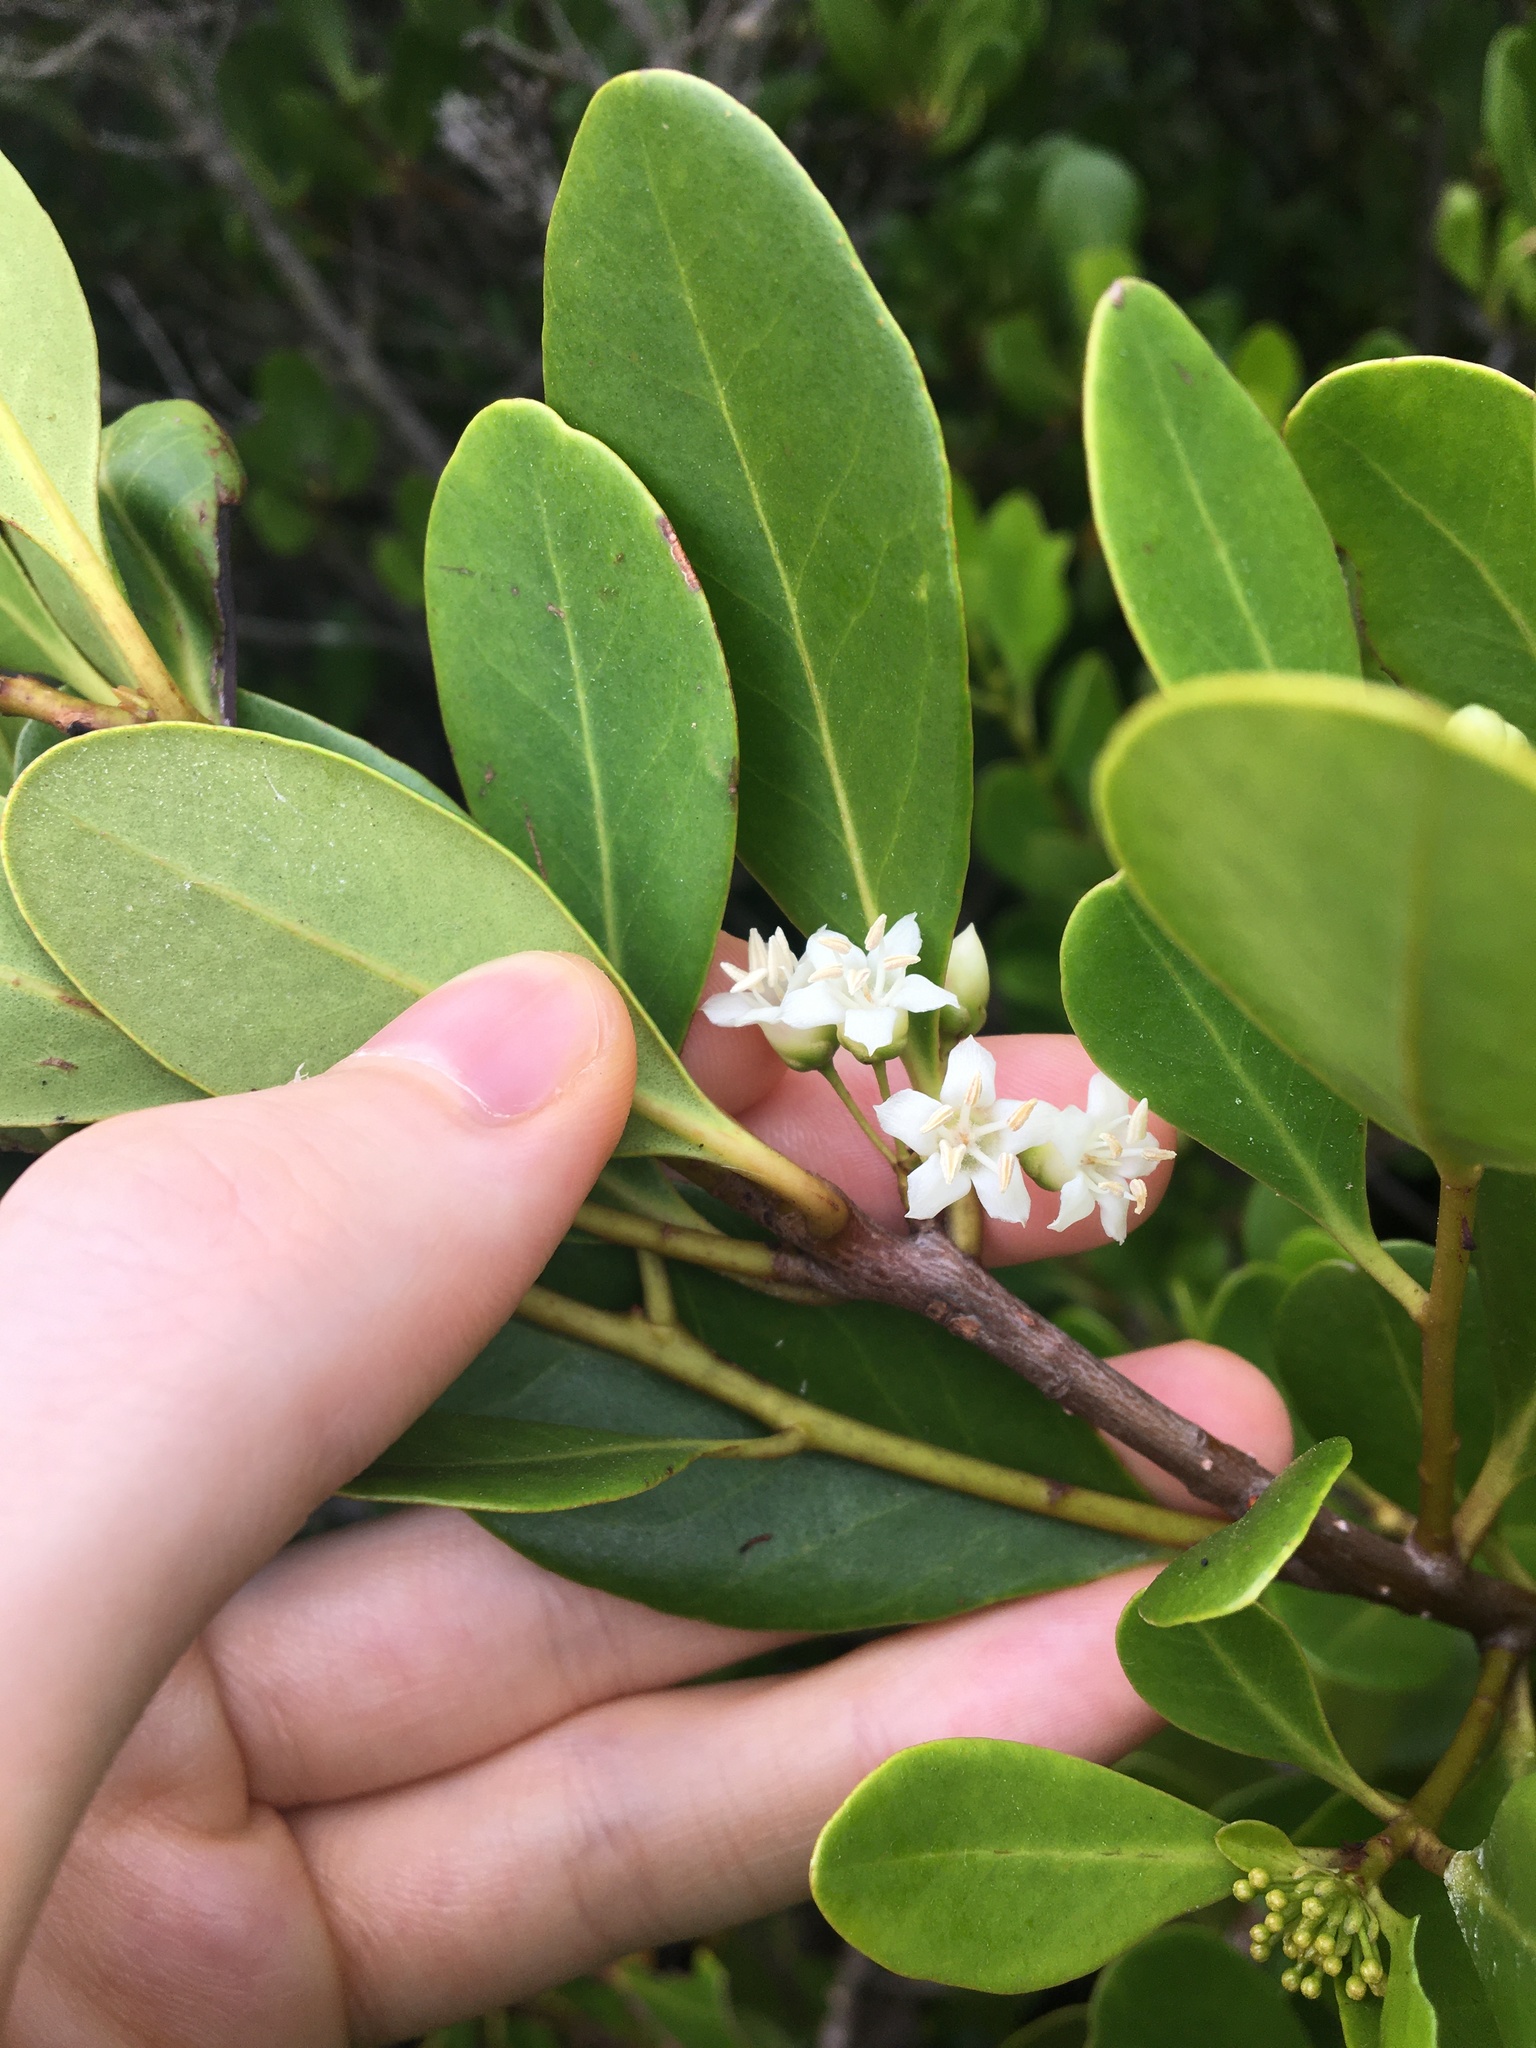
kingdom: Plantae
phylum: Tracheophyta
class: Magnoliopsida
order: Ericales
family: Primulaceae
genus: Aegiceras
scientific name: Aegiceras corniculatum
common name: River mangrove
